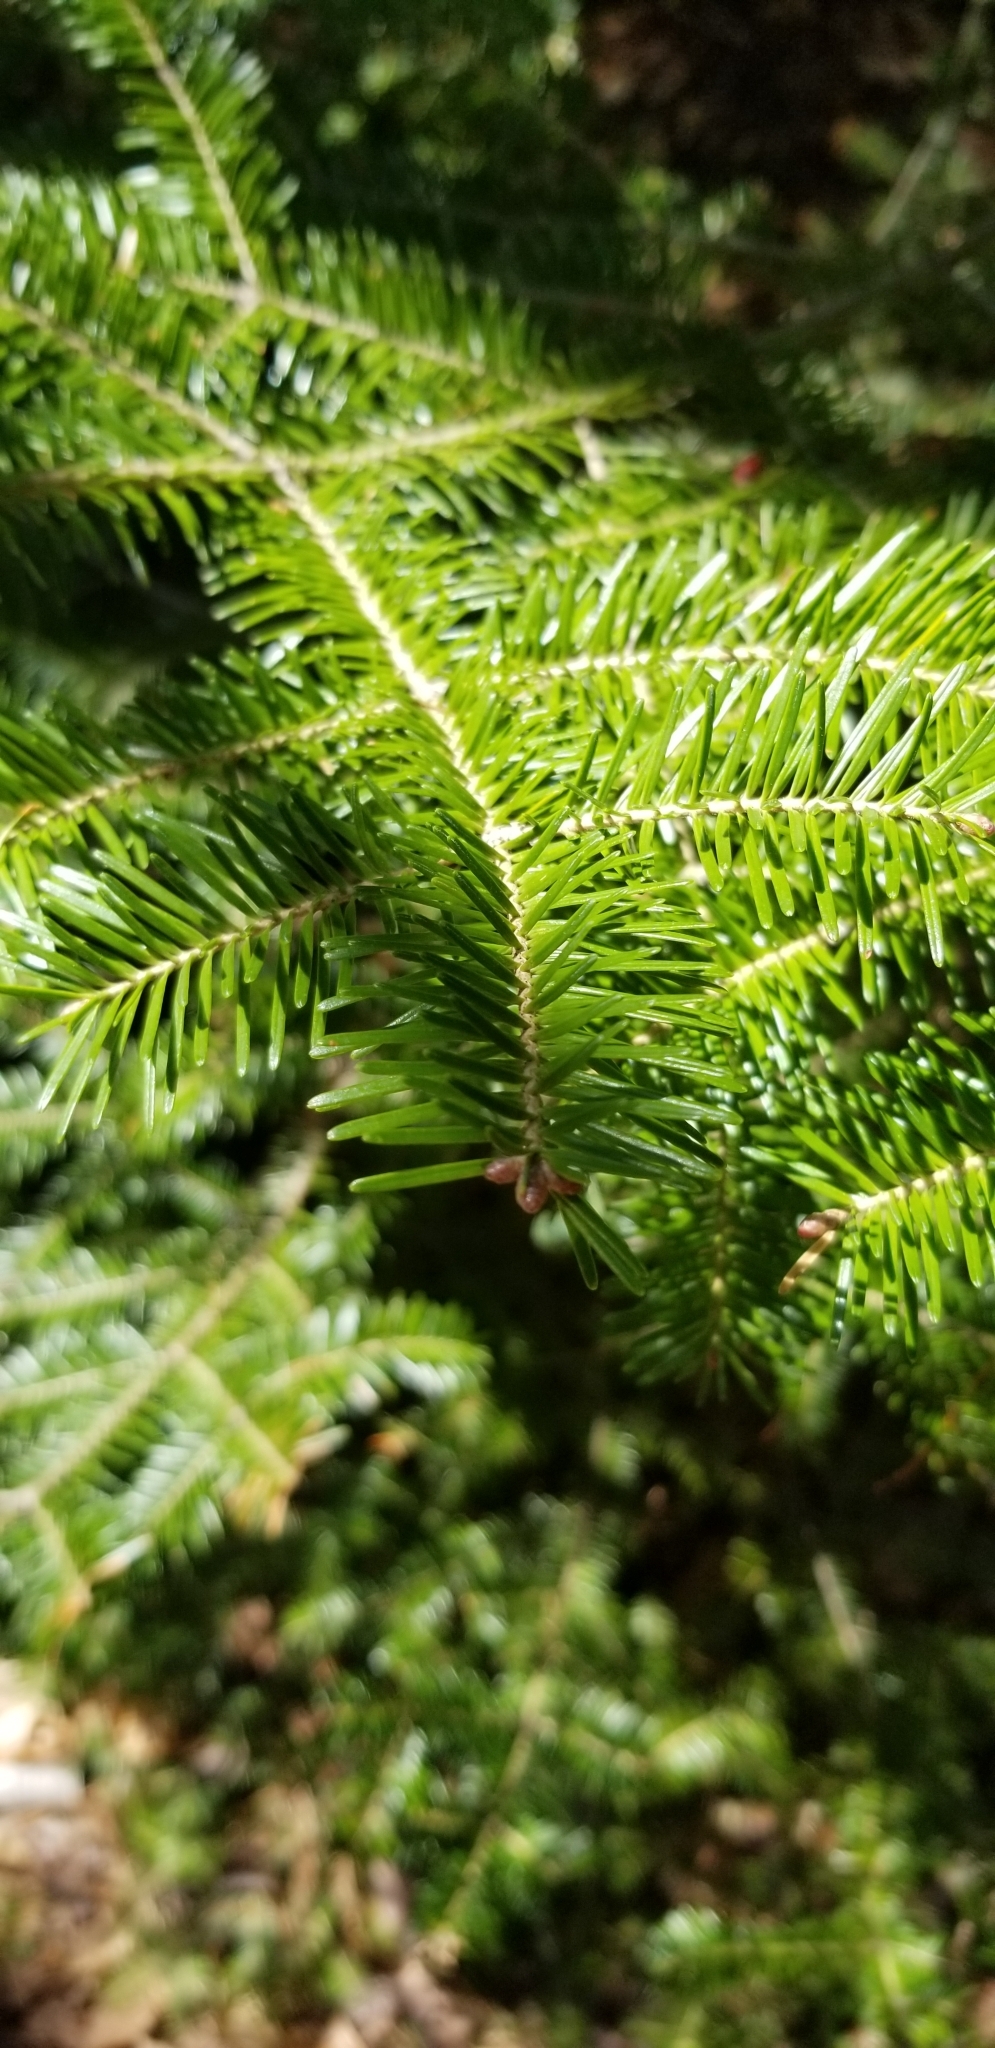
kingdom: Plantae
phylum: Tracheophyta
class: Pinopsida
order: Pinales
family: Pinaceae
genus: Abies
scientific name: Abies balsamea
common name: Balsam fir
